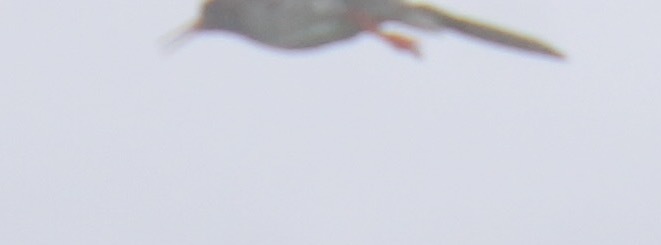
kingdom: Animalia
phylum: Chordata
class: Aves
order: Charadriiformes
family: Scolopacidae
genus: Tringa
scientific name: Tringa totanus
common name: Common redshank
